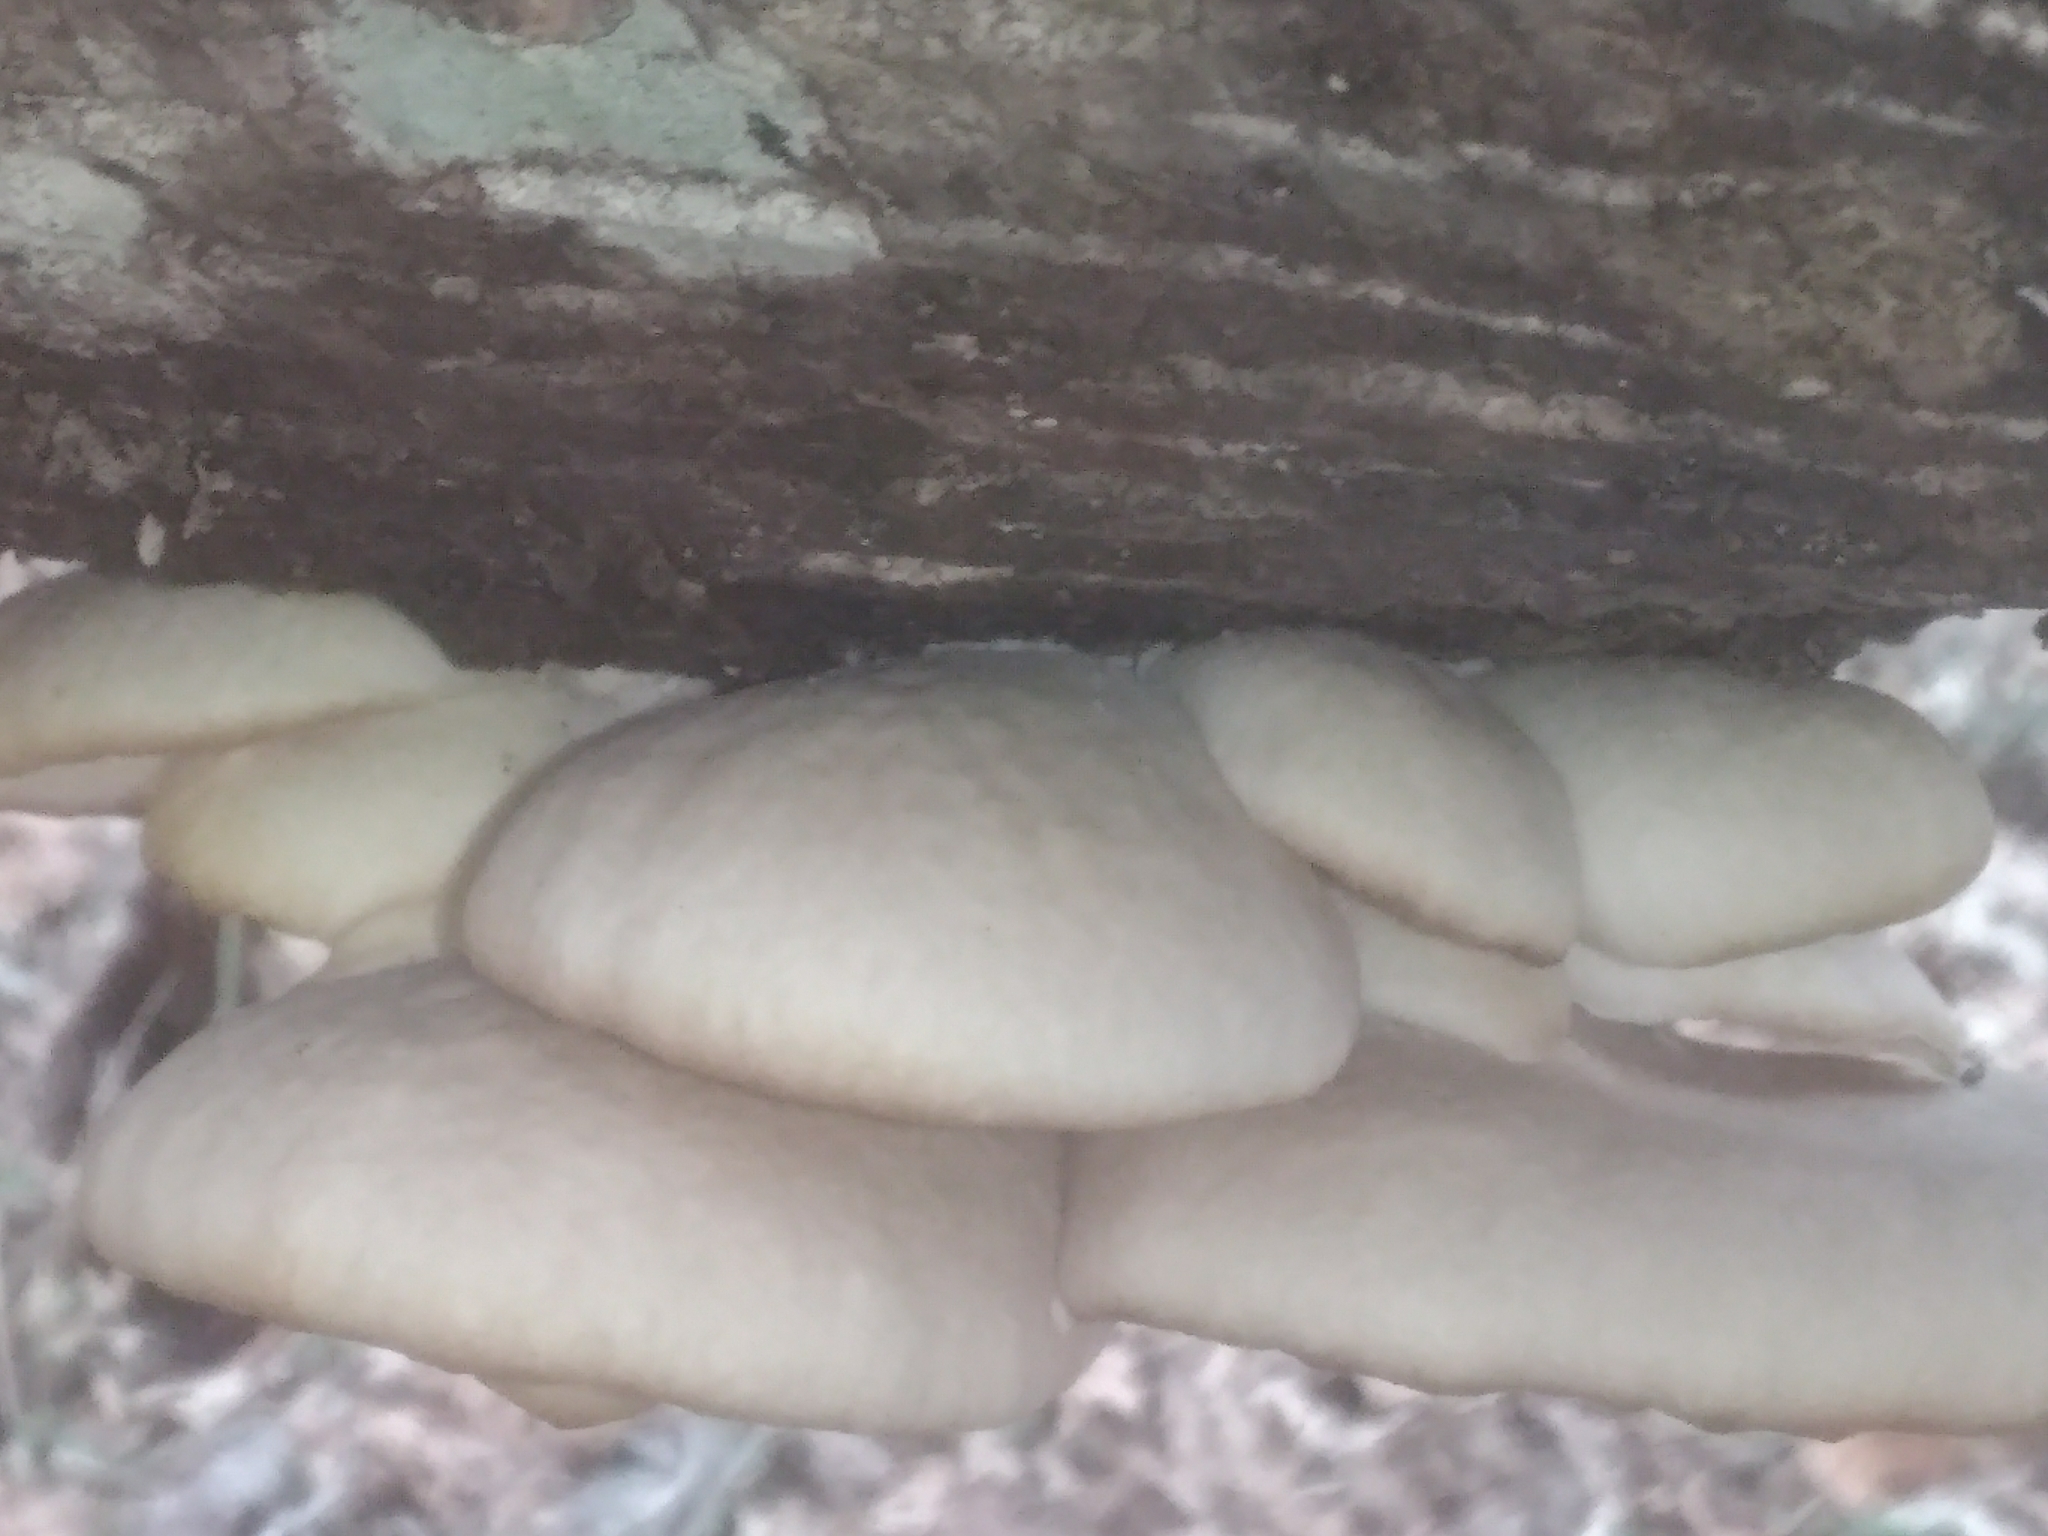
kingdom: Fungi
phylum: Basidiomycota
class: Agaricomycetes
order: Agaricales
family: Pleurotaceae
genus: Pleurotus
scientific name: Pleurotus ostreatus
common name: Oyster mushroom
